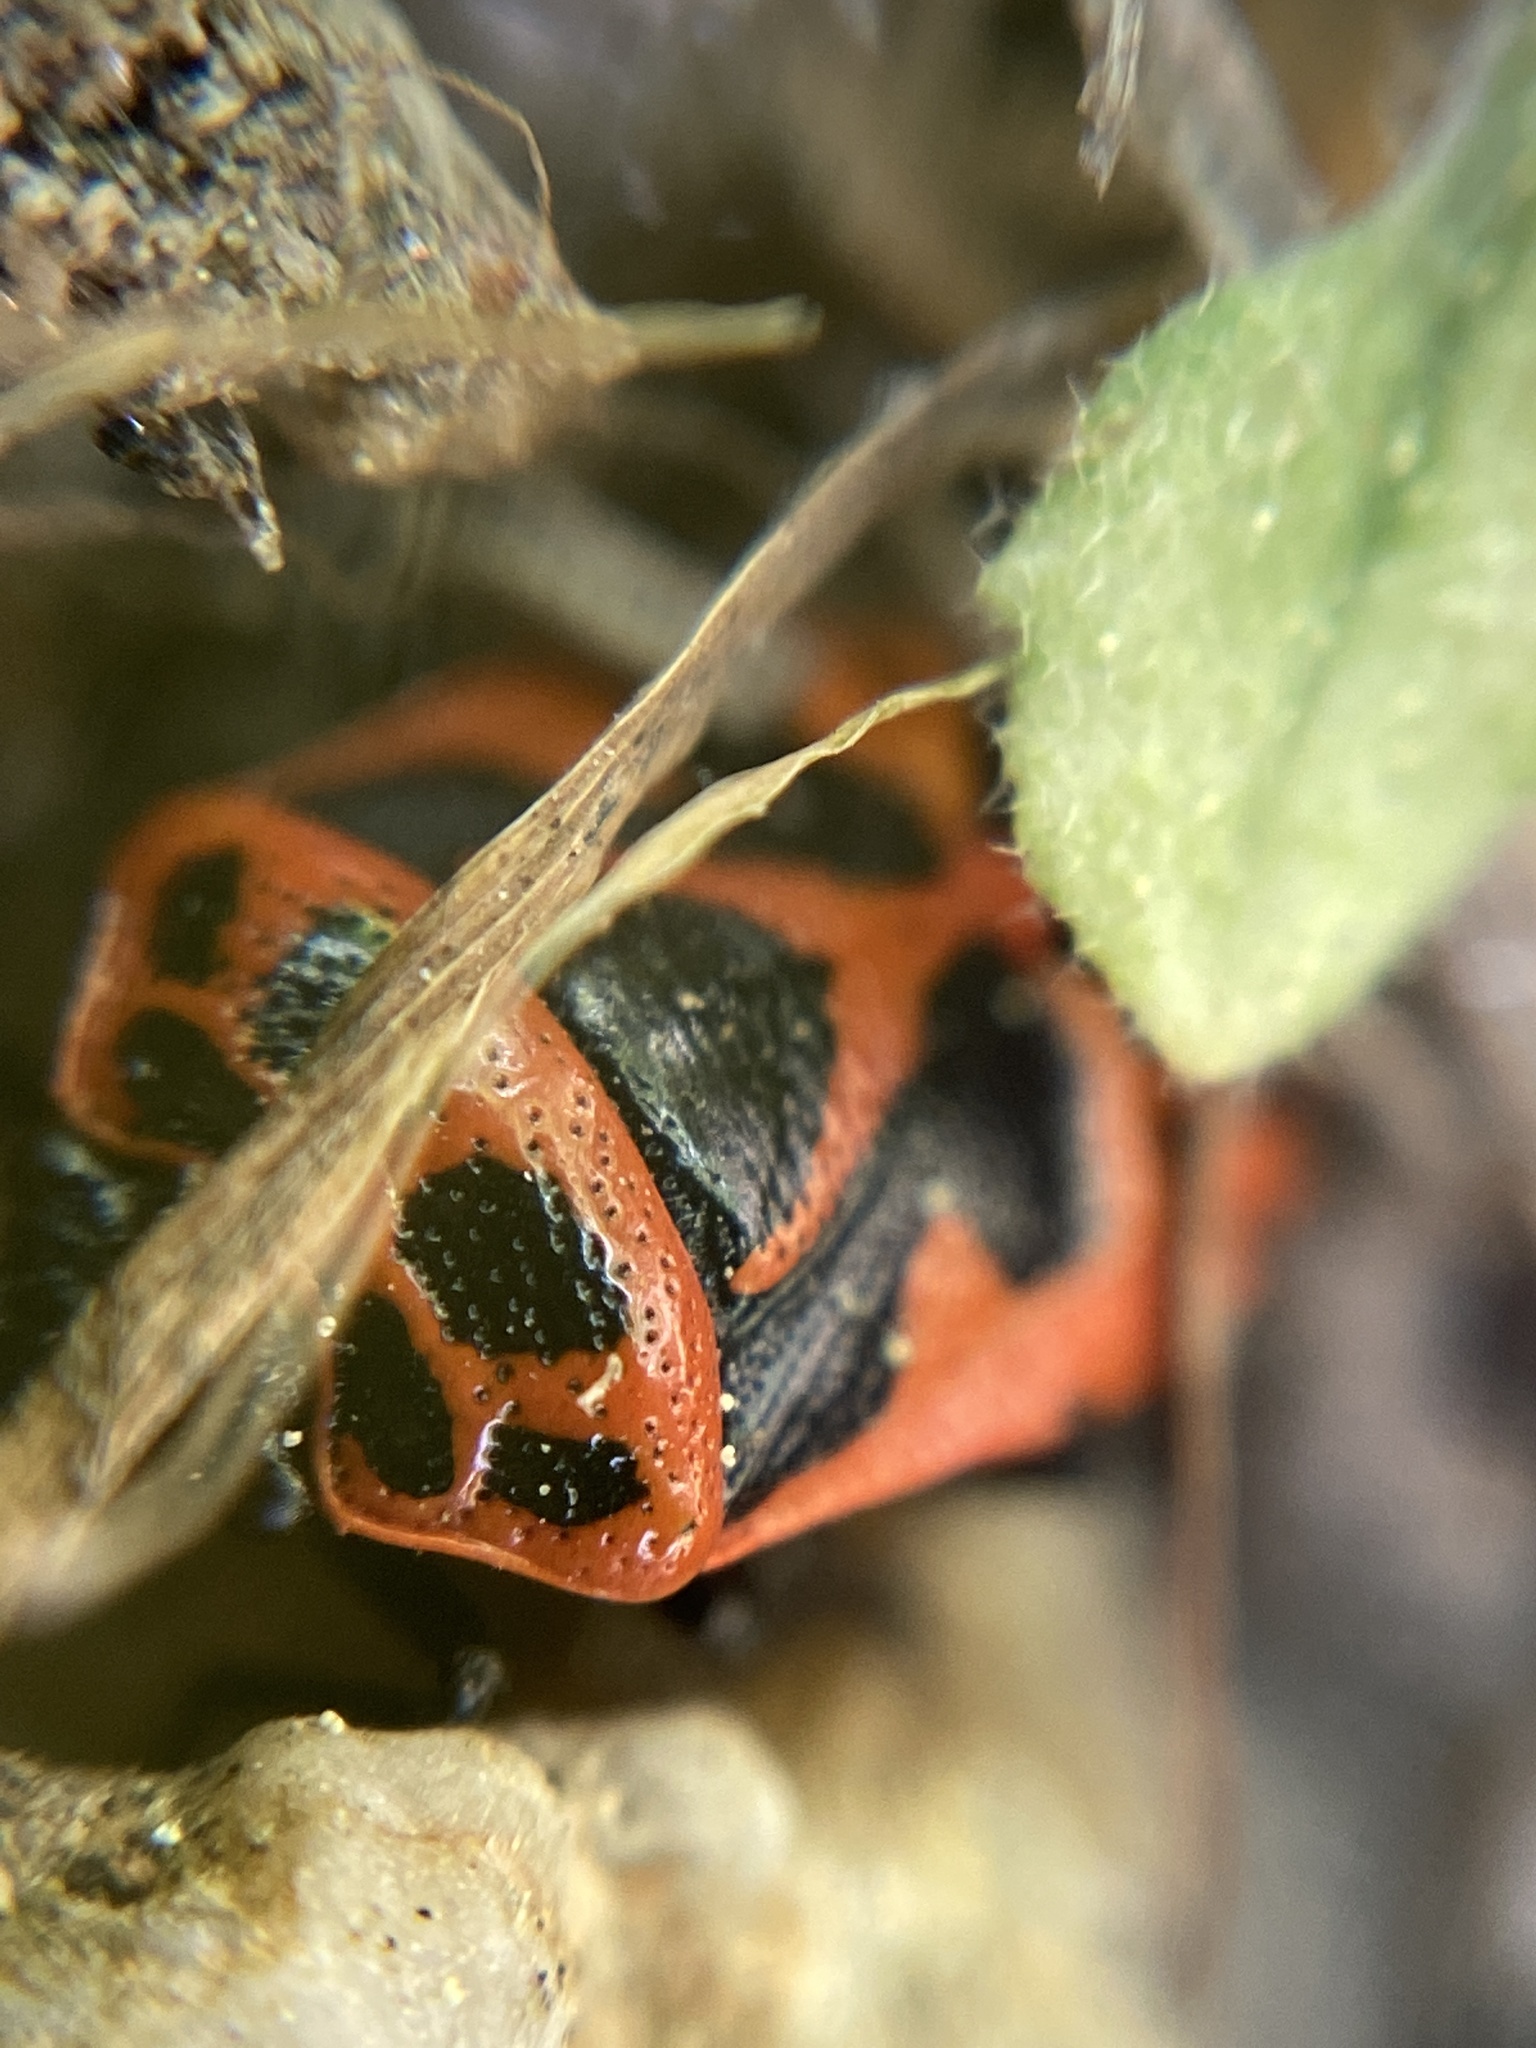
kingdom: Animalia
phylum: Arthropoda
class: Insecta
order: Hemiptera
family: Pentatomidae
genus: Eurydema
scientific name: Eurydema dominulus
